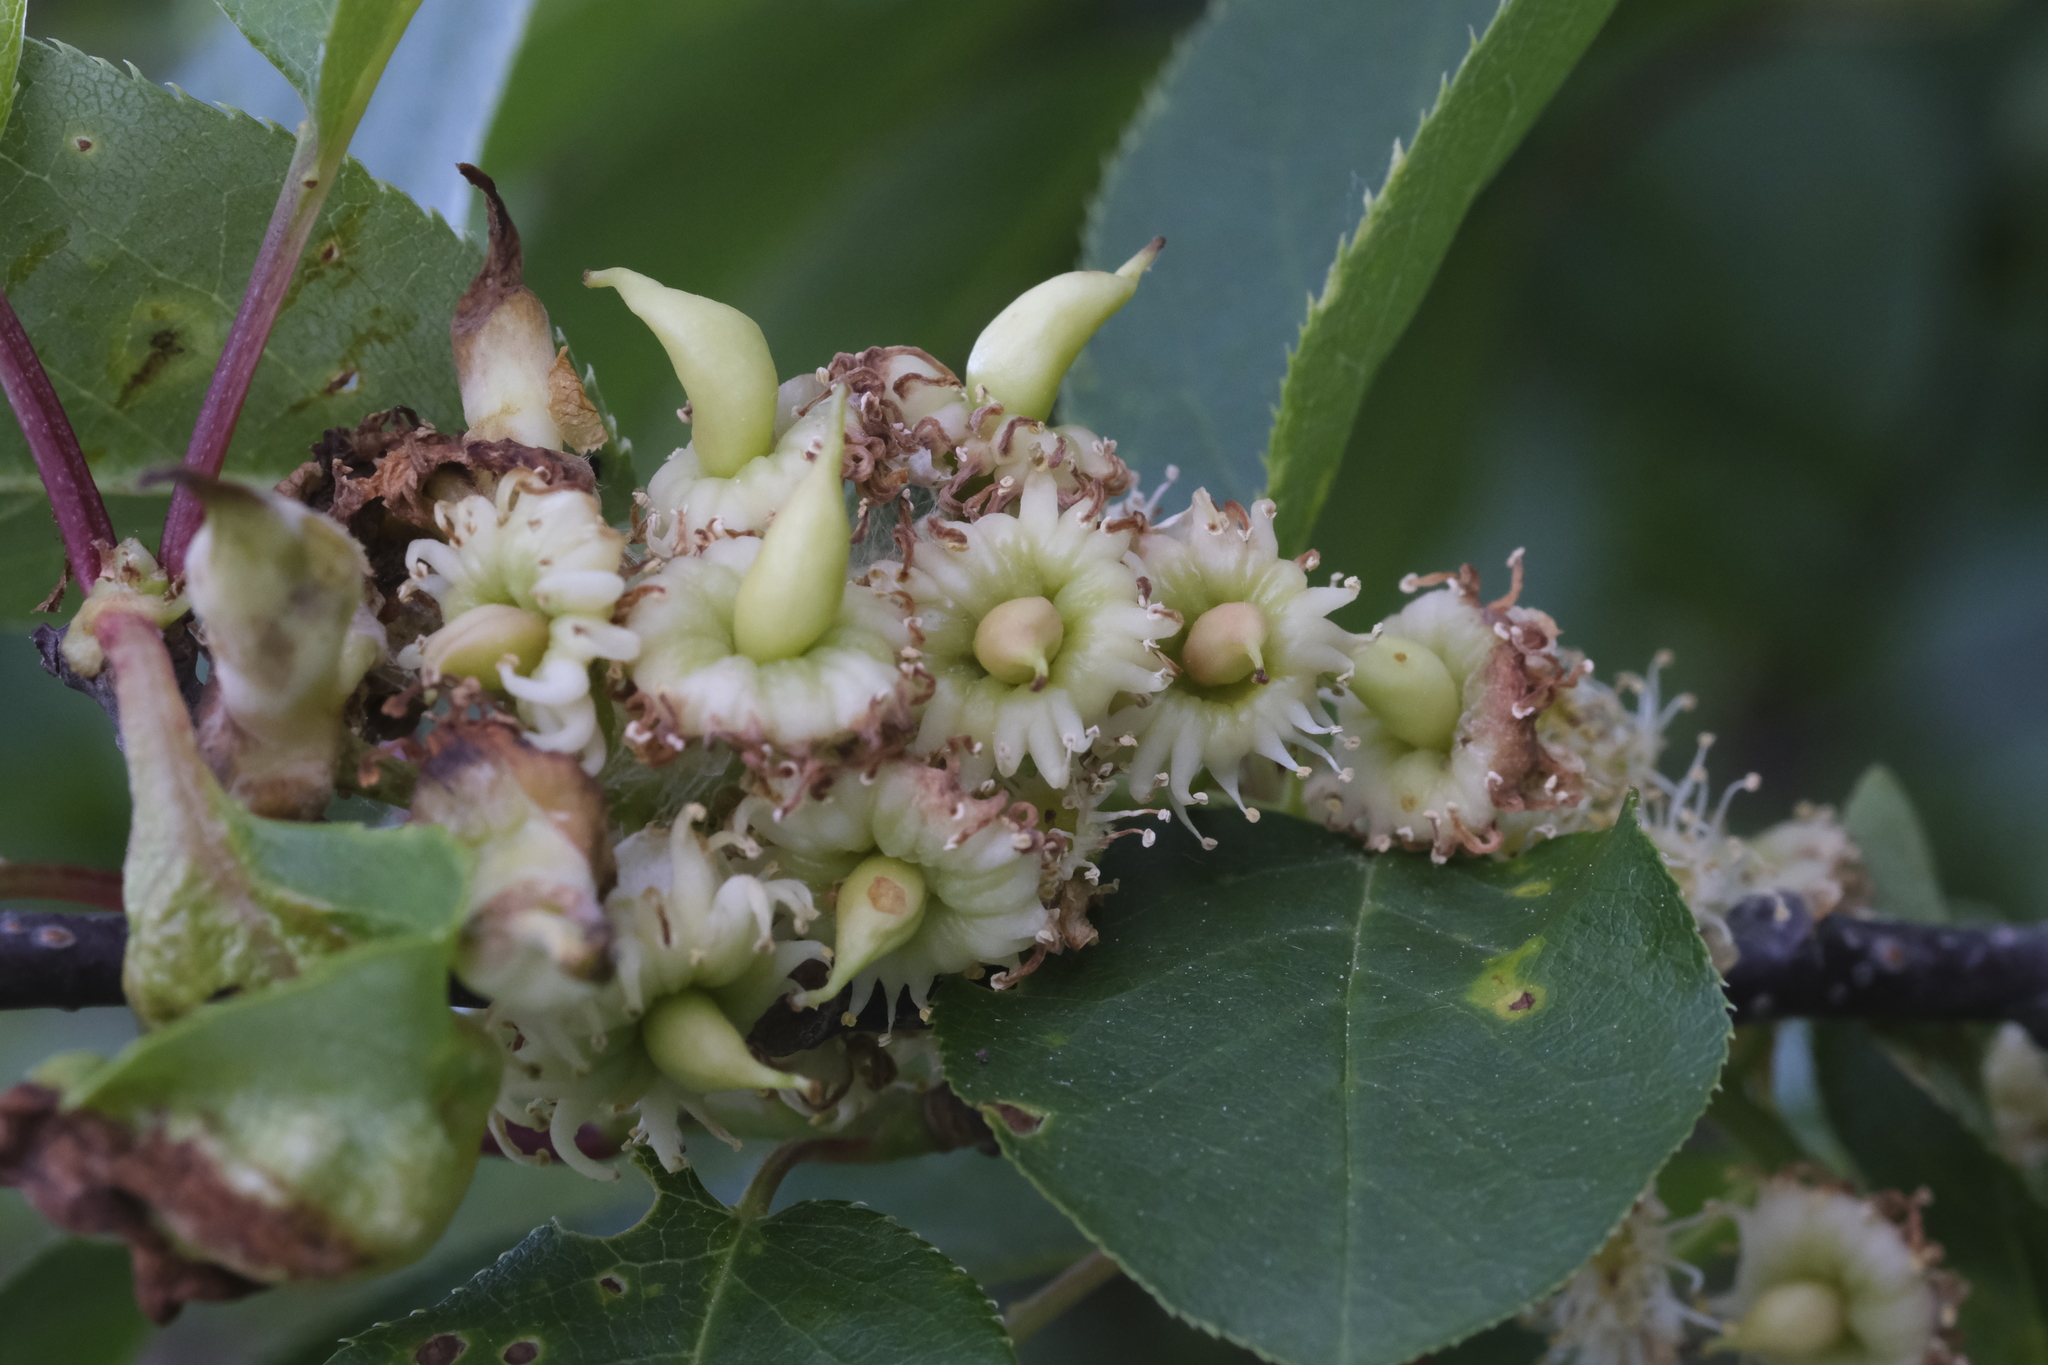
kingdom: Fungi
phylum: Ascomycota
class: Taphrinomycetes
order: Taphrinales
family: Taphrinaceae
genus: Taphrina
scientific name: Taphrina farlowii
